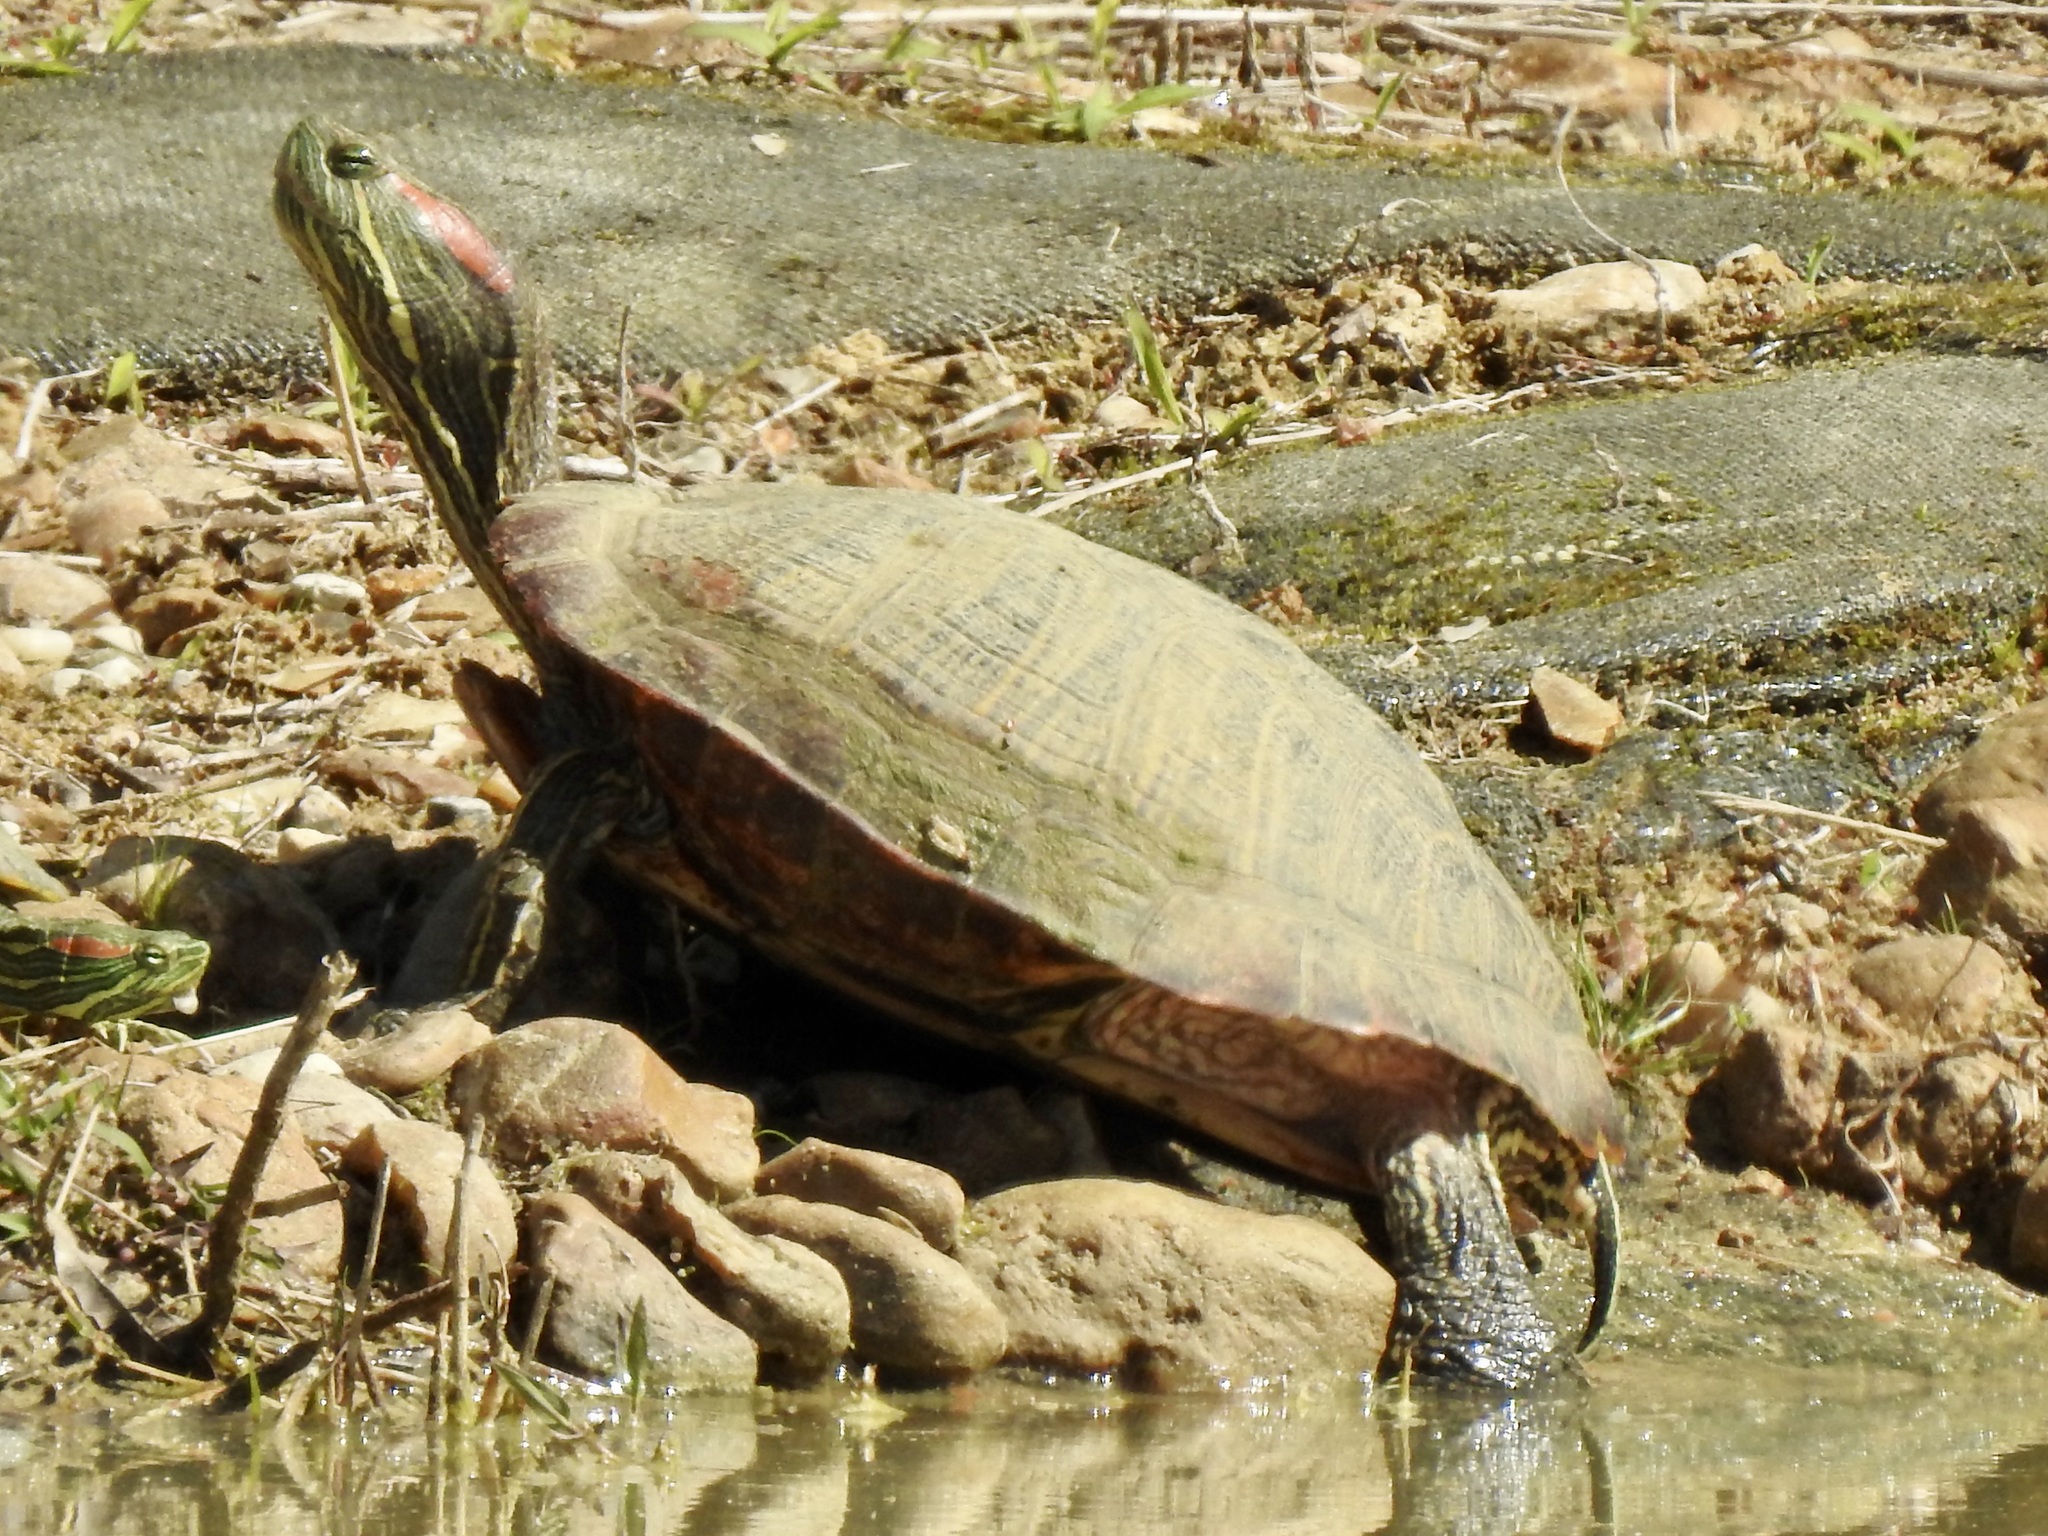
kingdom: Animalia
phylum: Chordata
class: Testudines
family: Emydidae
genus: Trachemys
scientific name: Trachemys scripta
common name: Slider
